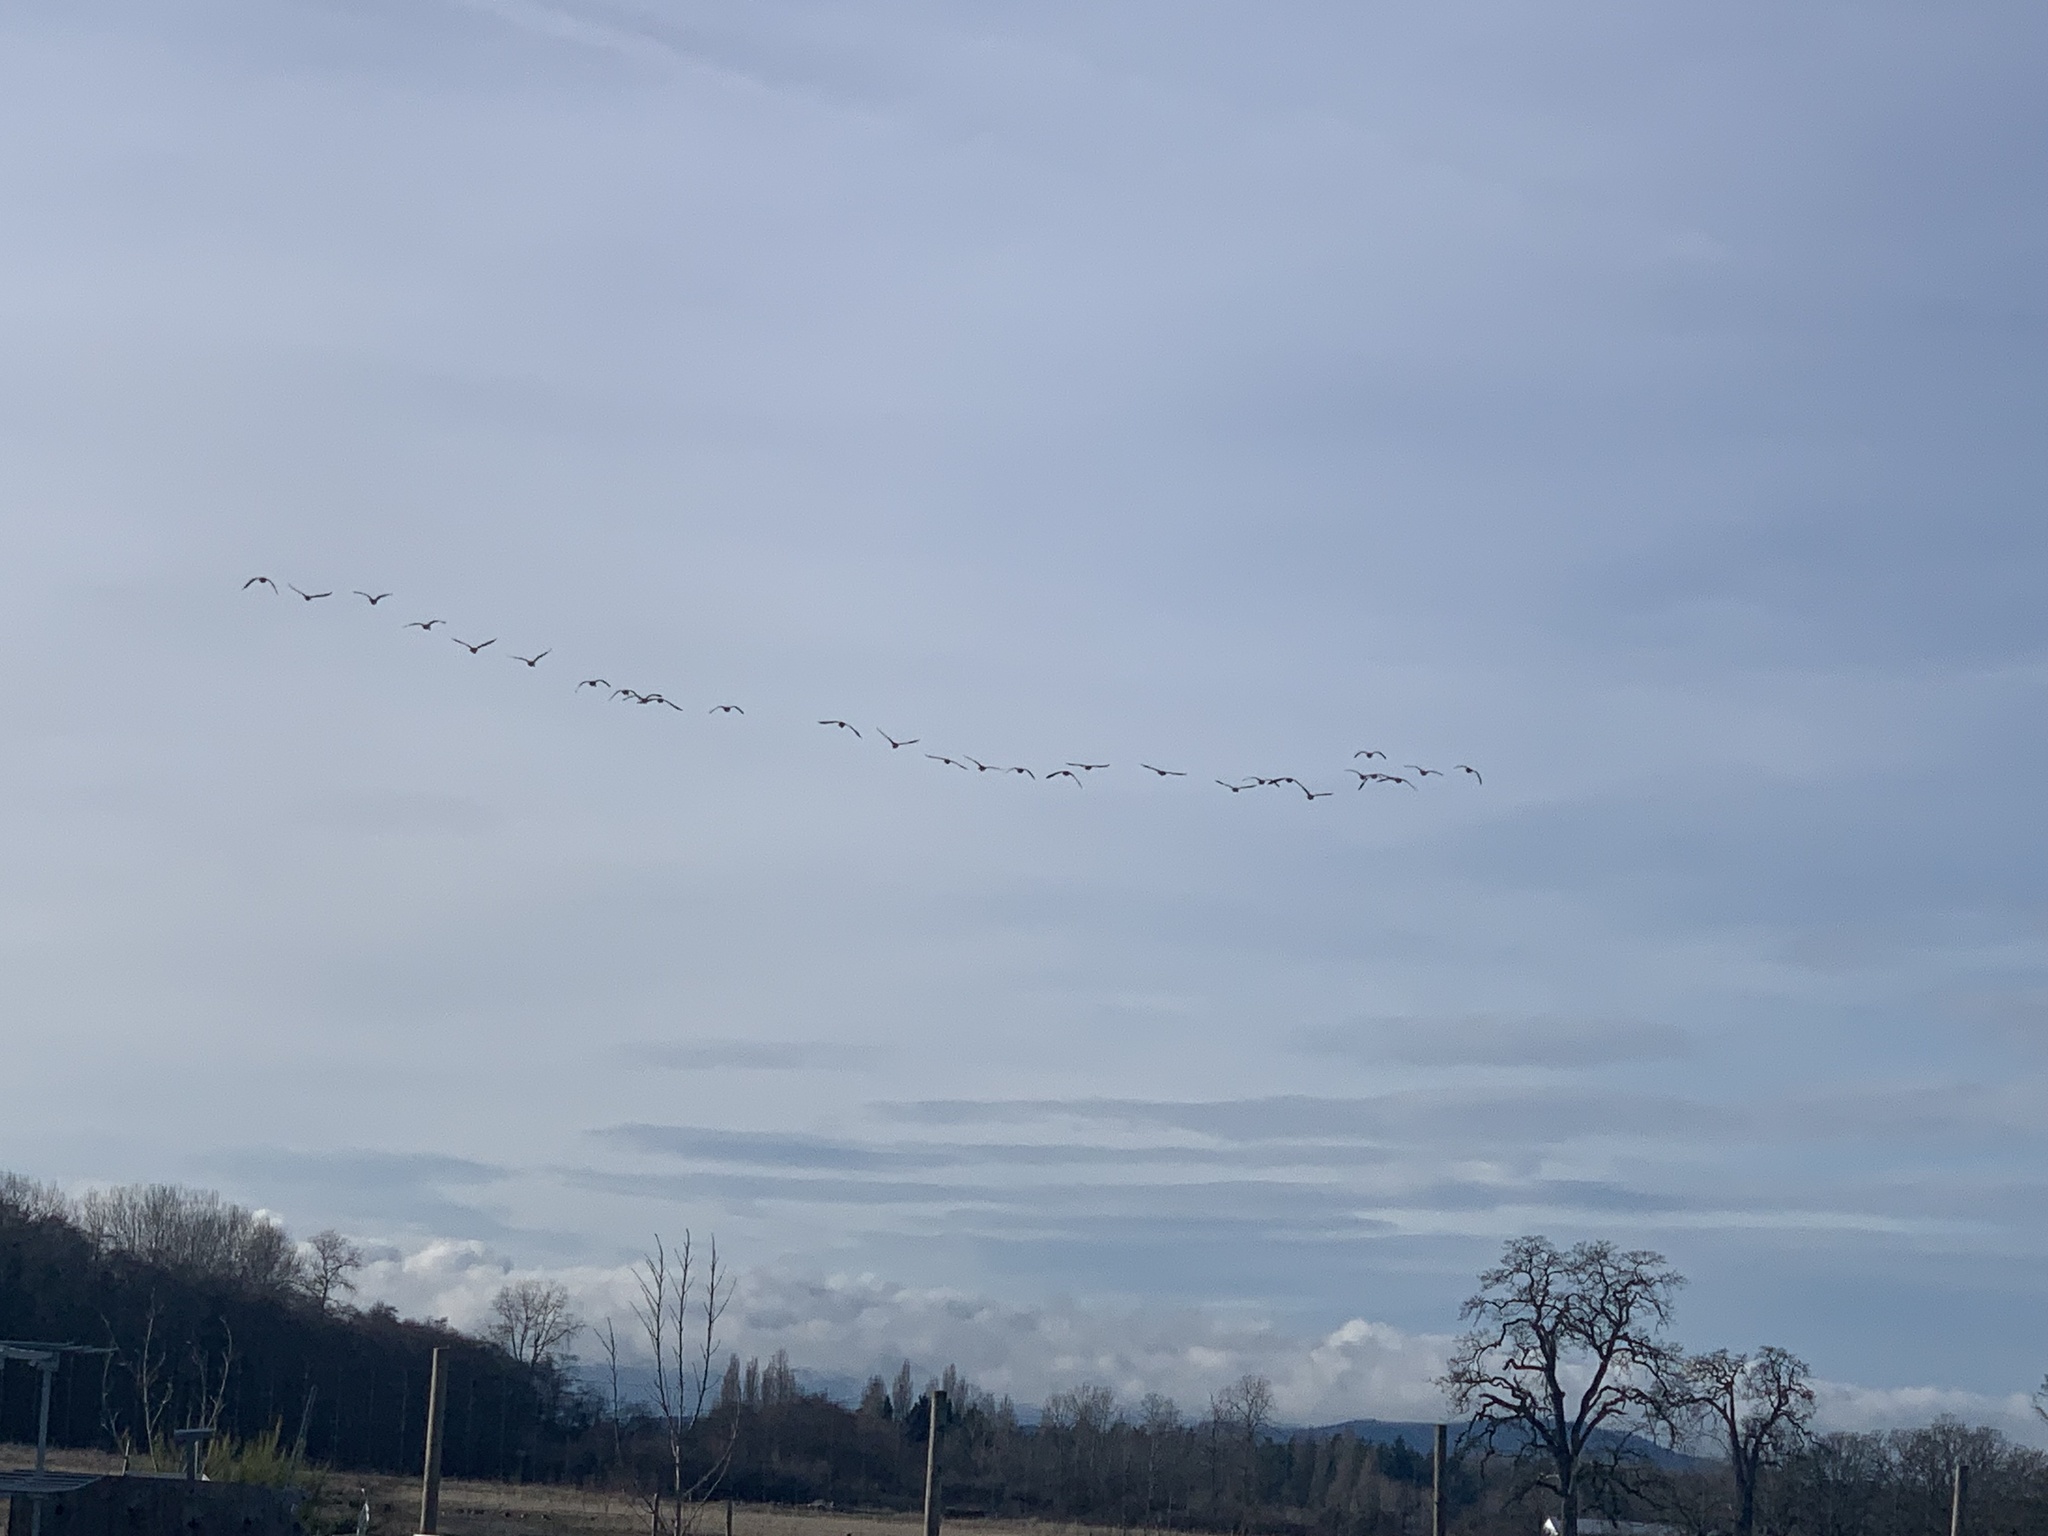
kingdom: Animalia
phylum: Chordata
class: Aves
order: Anseriformes
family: Anatidae
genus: Branta
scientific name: Branta canadensis
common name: Canada goose
